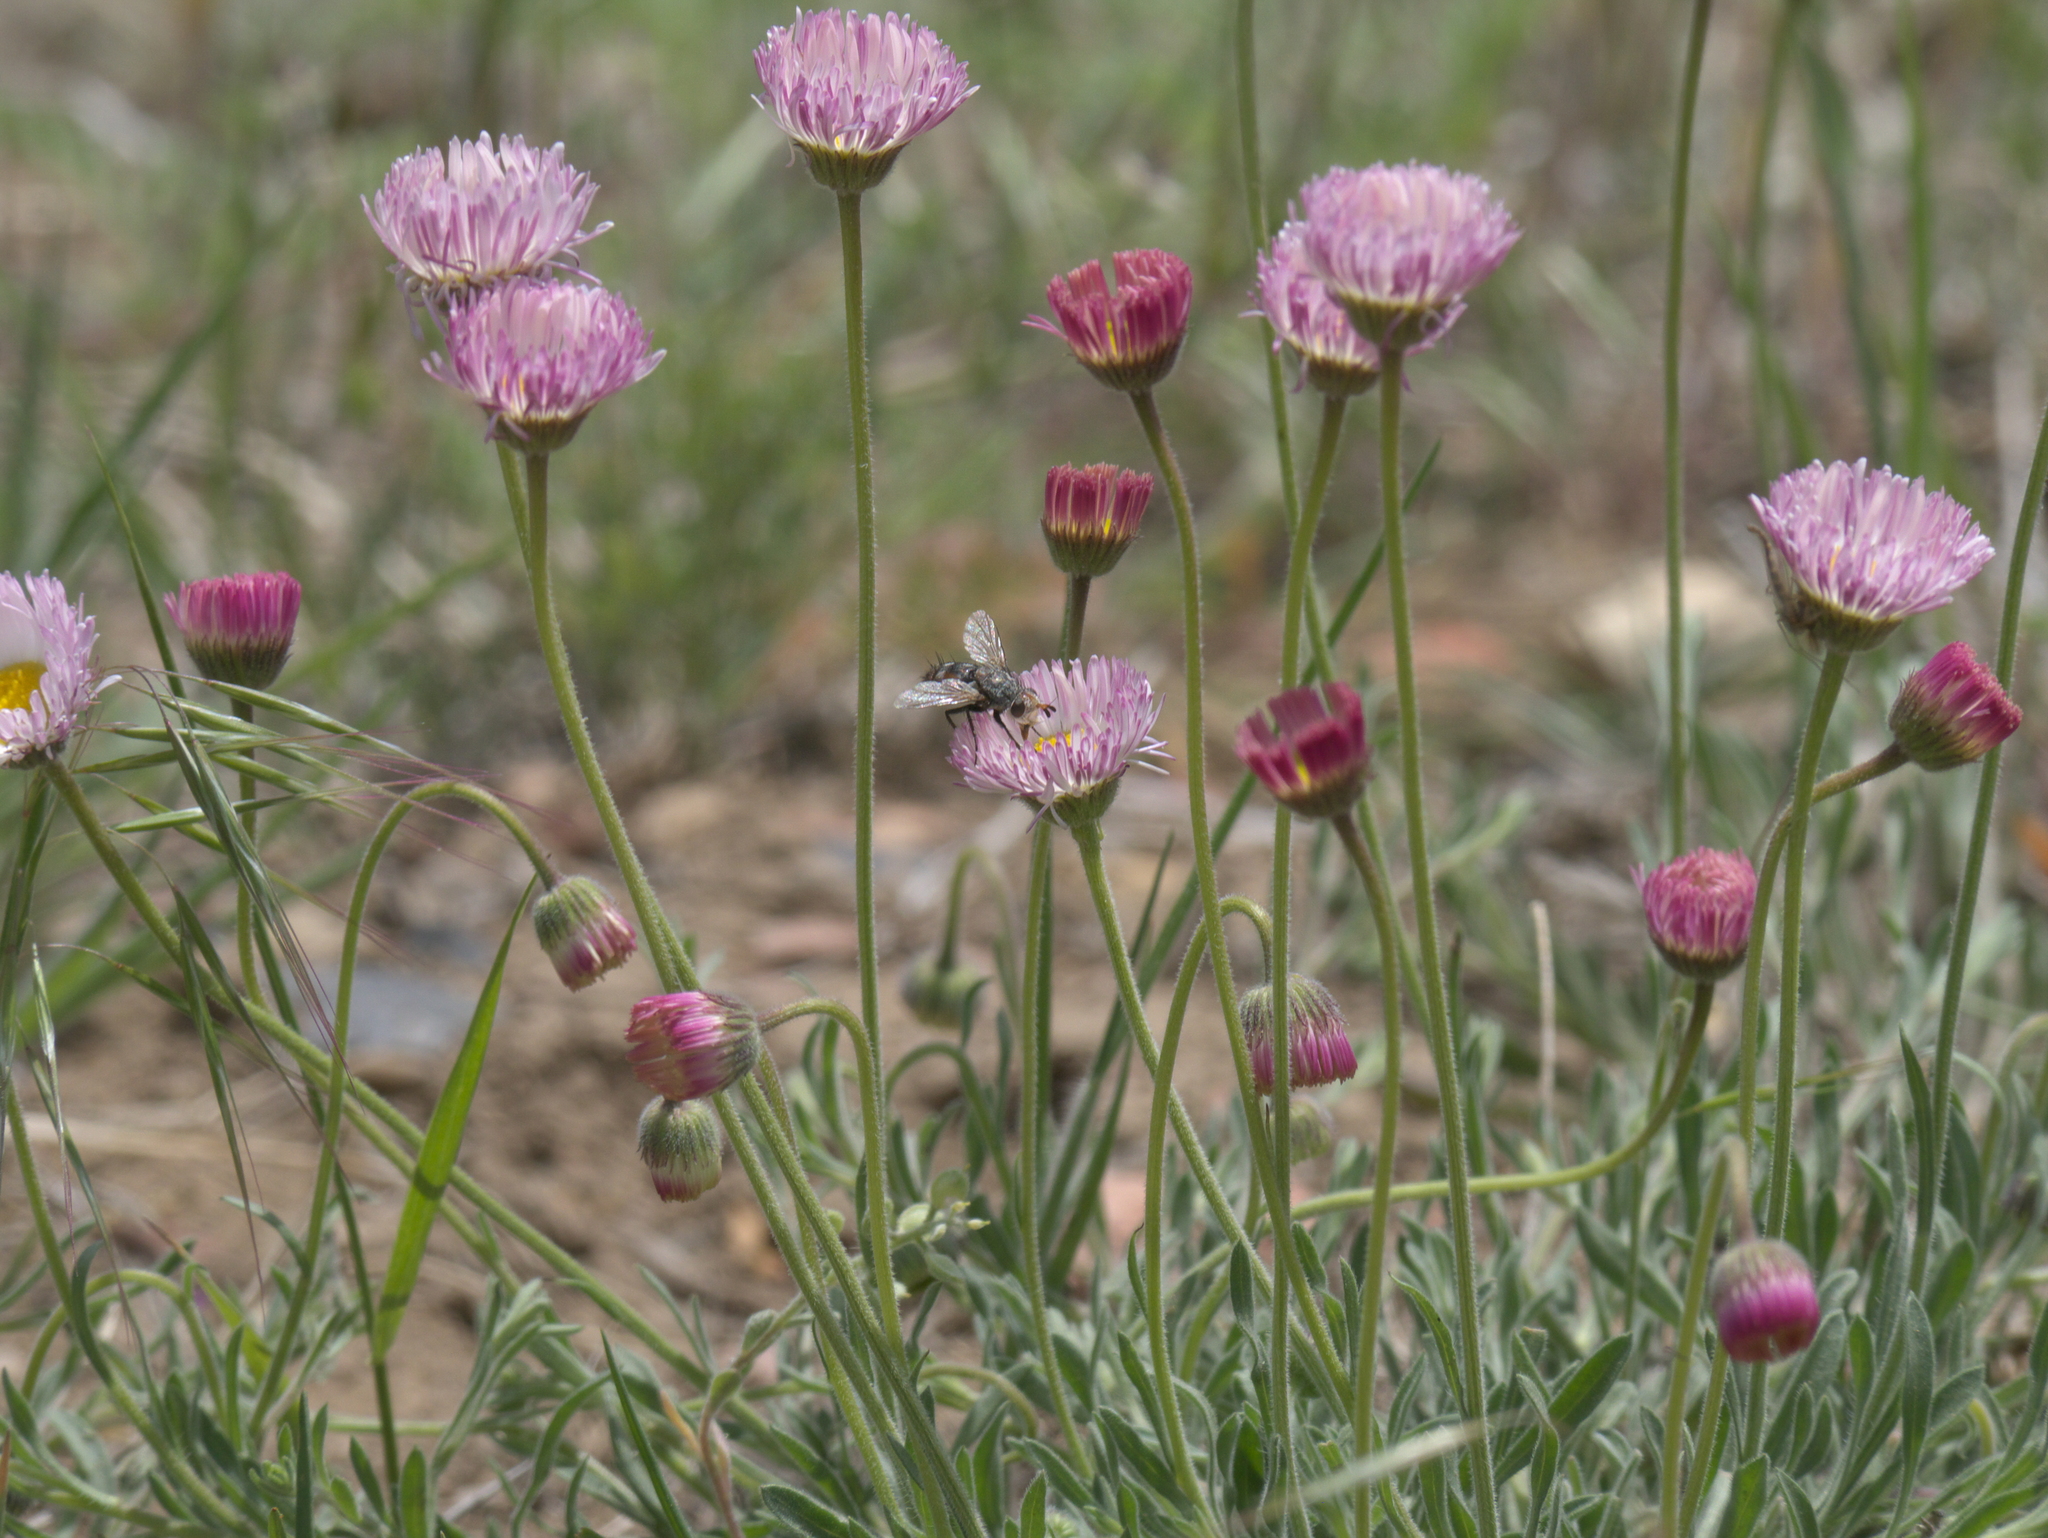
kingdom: Plantae
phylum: Tracheophyta
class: Magnoliopsida
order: Asterales
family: Asteraceae
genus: Erigeron
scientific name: Erigeron modestus
